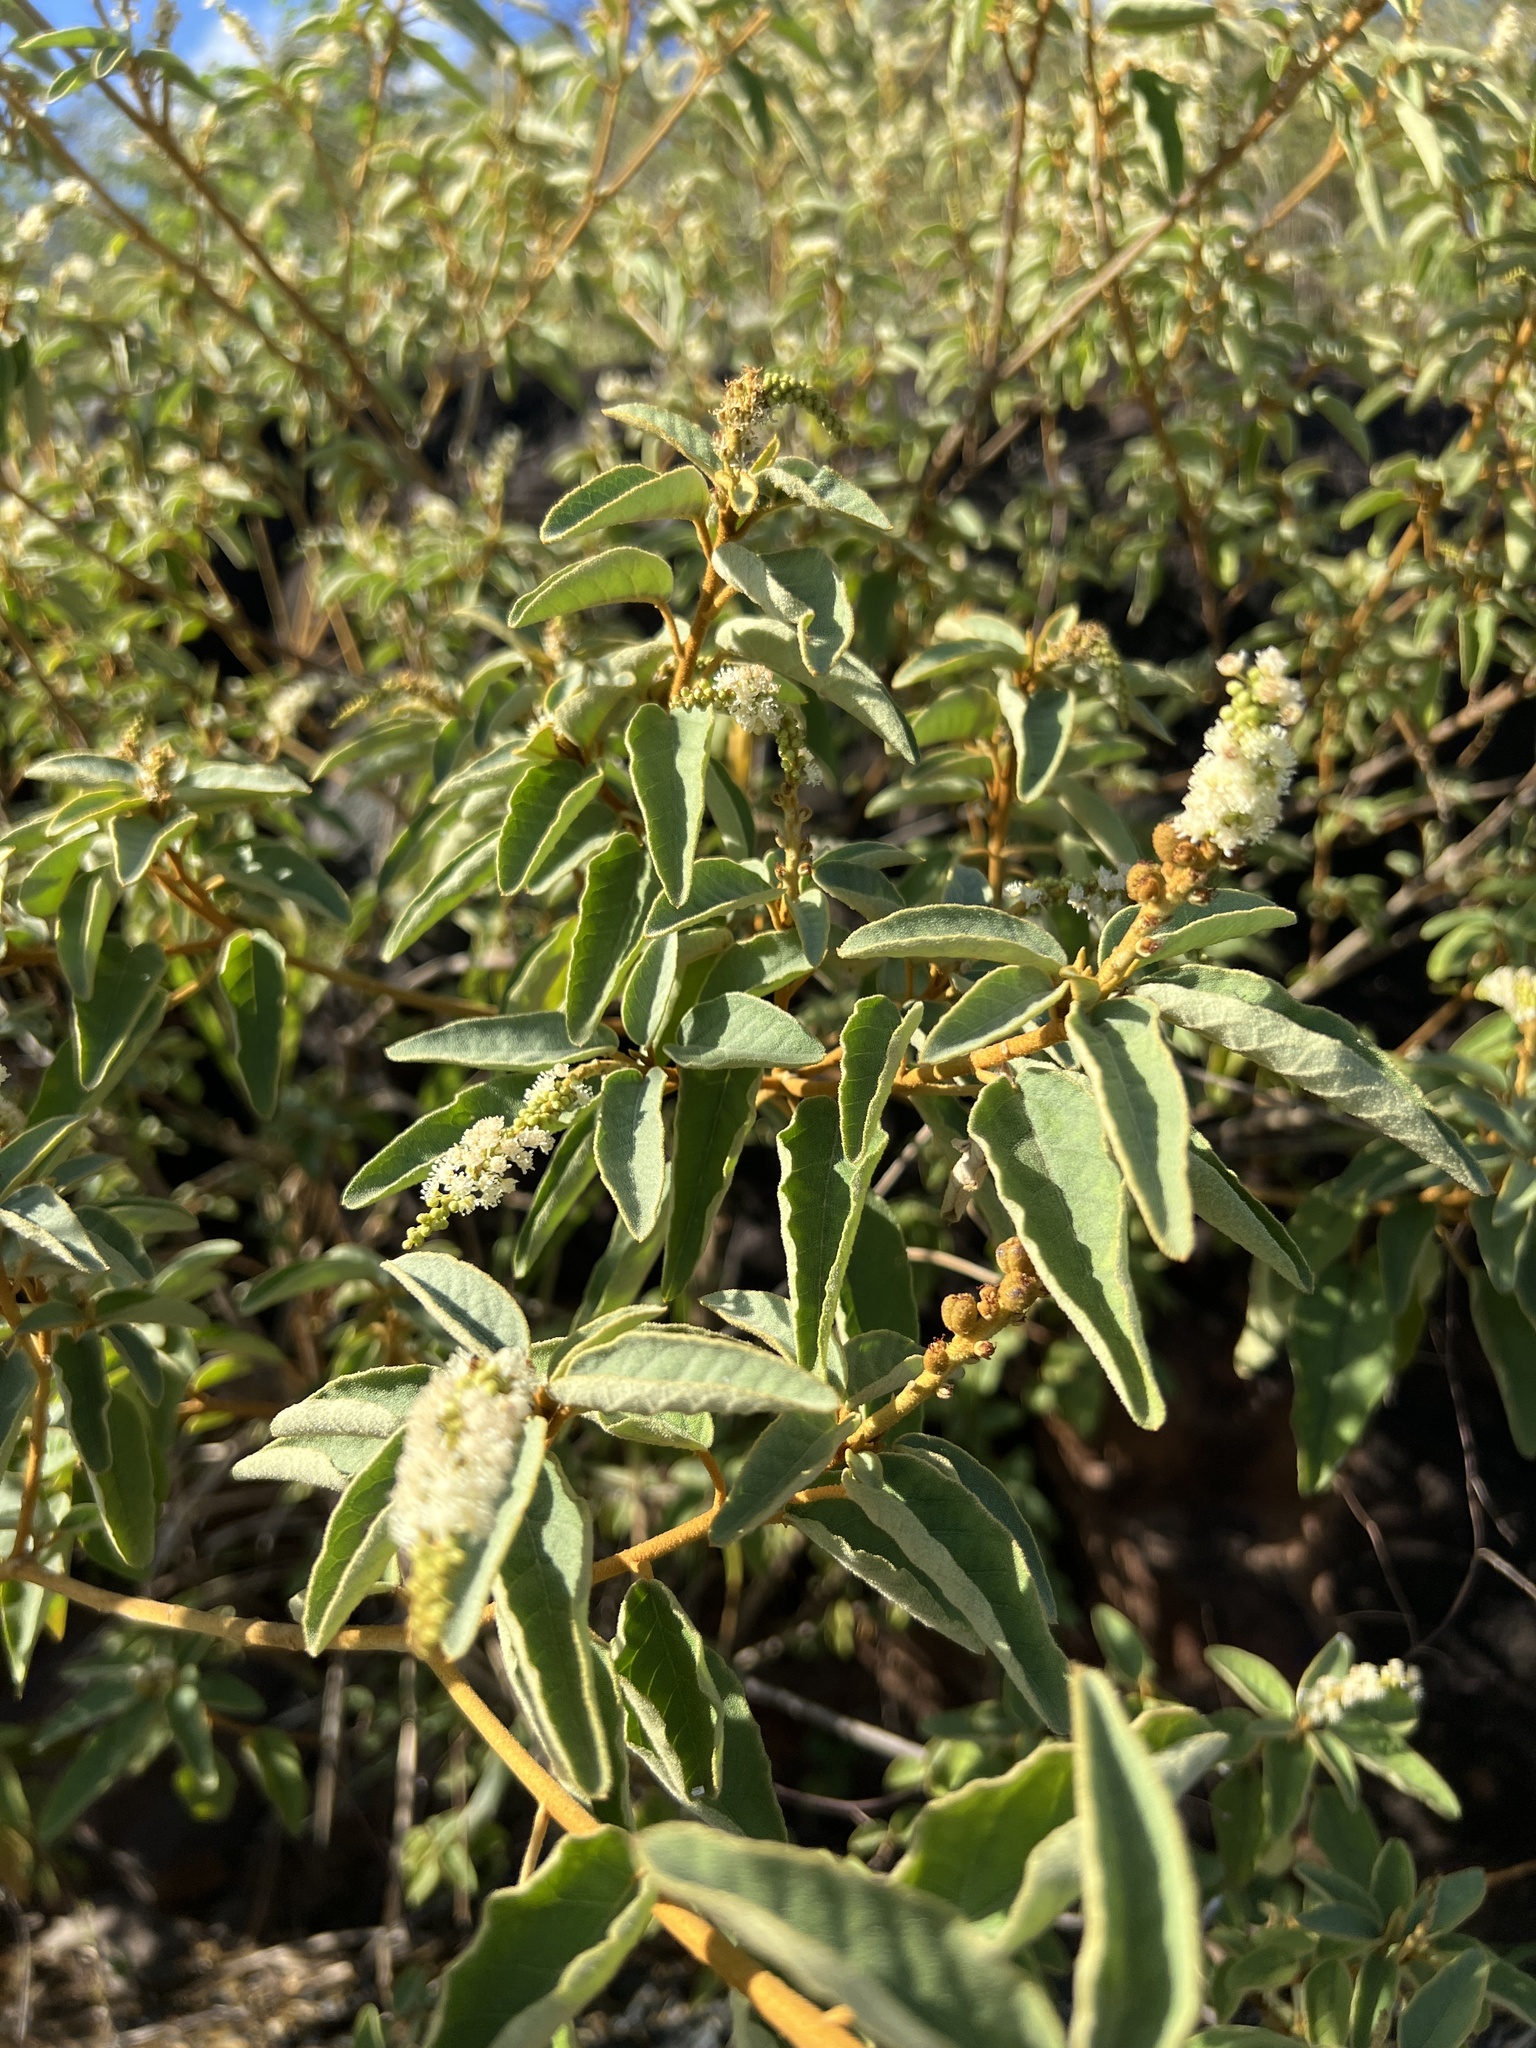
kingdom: Plantae
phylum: Tracheophyta
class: Magnoliopsida
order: Malpighiales
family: Euphorbiaceae
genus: Croton
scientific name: Croton flavens
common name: Yellow balsam
